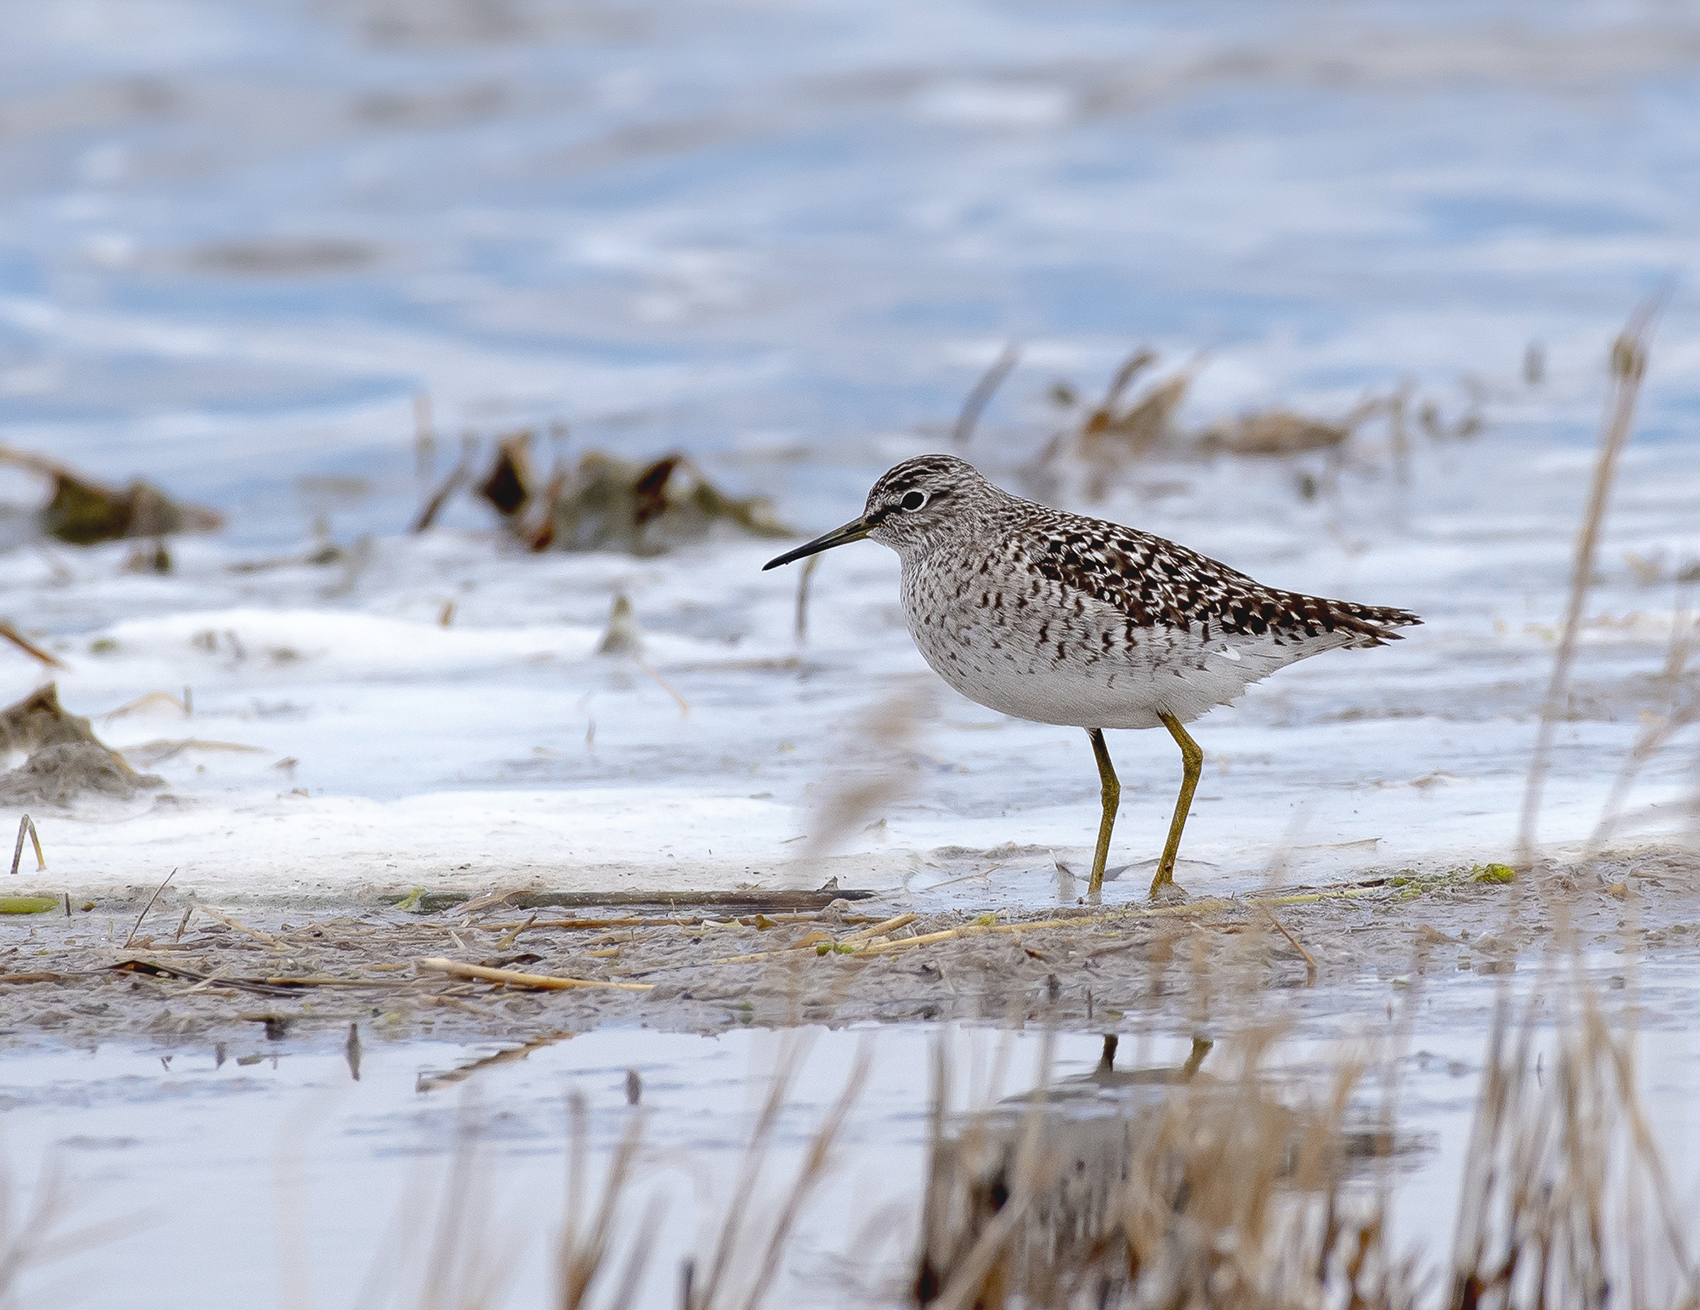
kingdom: Animalia
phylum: Chordata
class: Aves
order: Charadriiformes
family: Scolopacidae
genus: Tringa
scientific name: Tringa glareola
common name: Wood sandpiper
